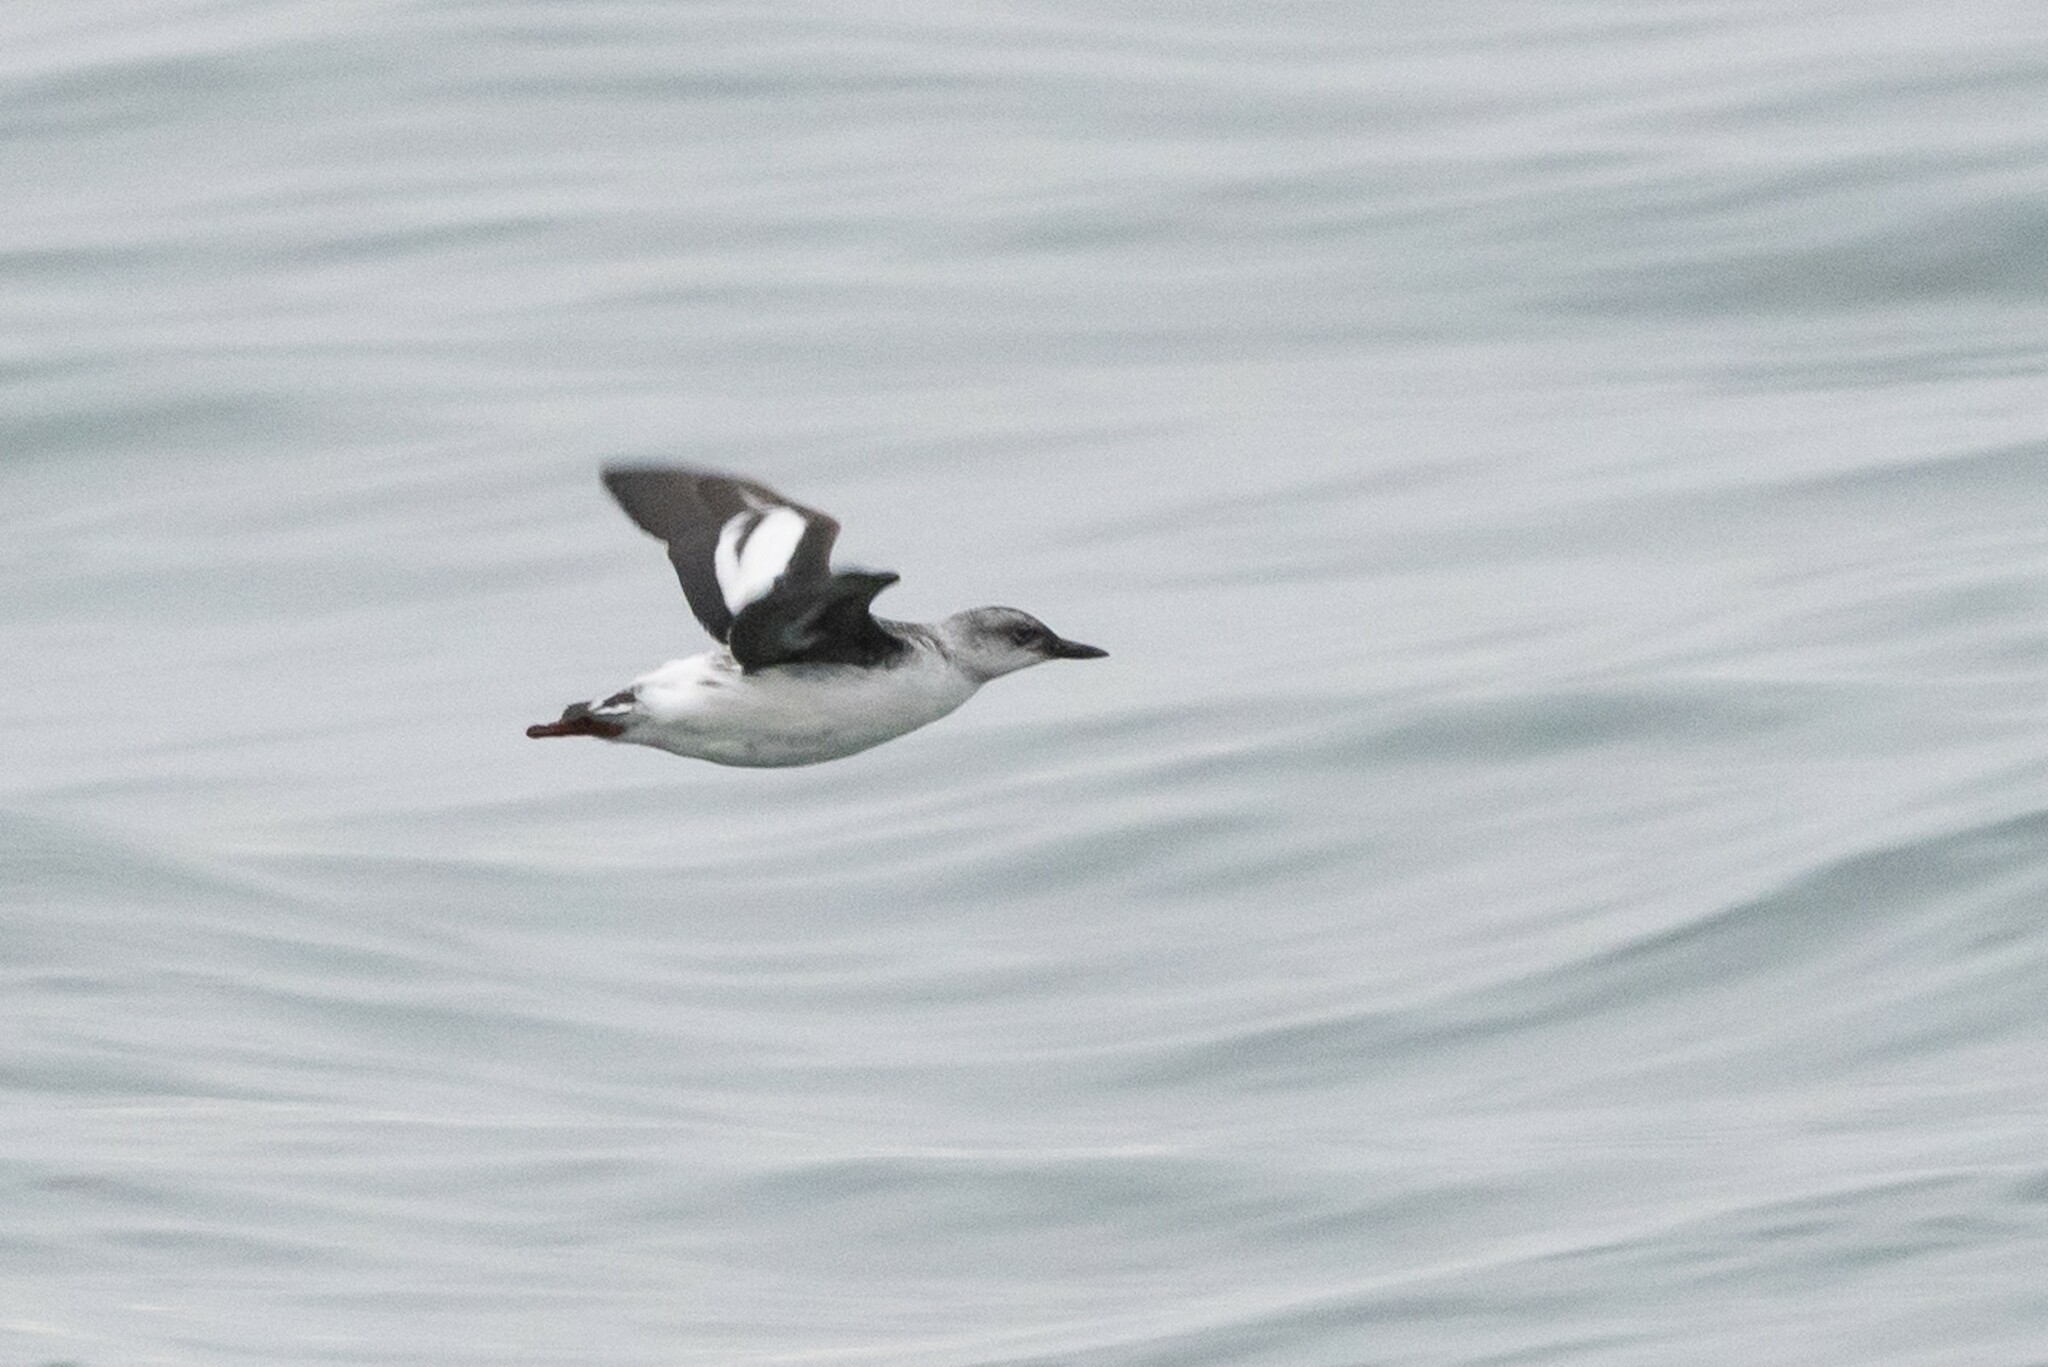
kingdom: Animalia
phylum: Chordata
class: Aves
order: Charadriiformes
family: Alcidae
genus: Cepphus
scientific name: Cepphus columba
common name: Pigeon guillemot
